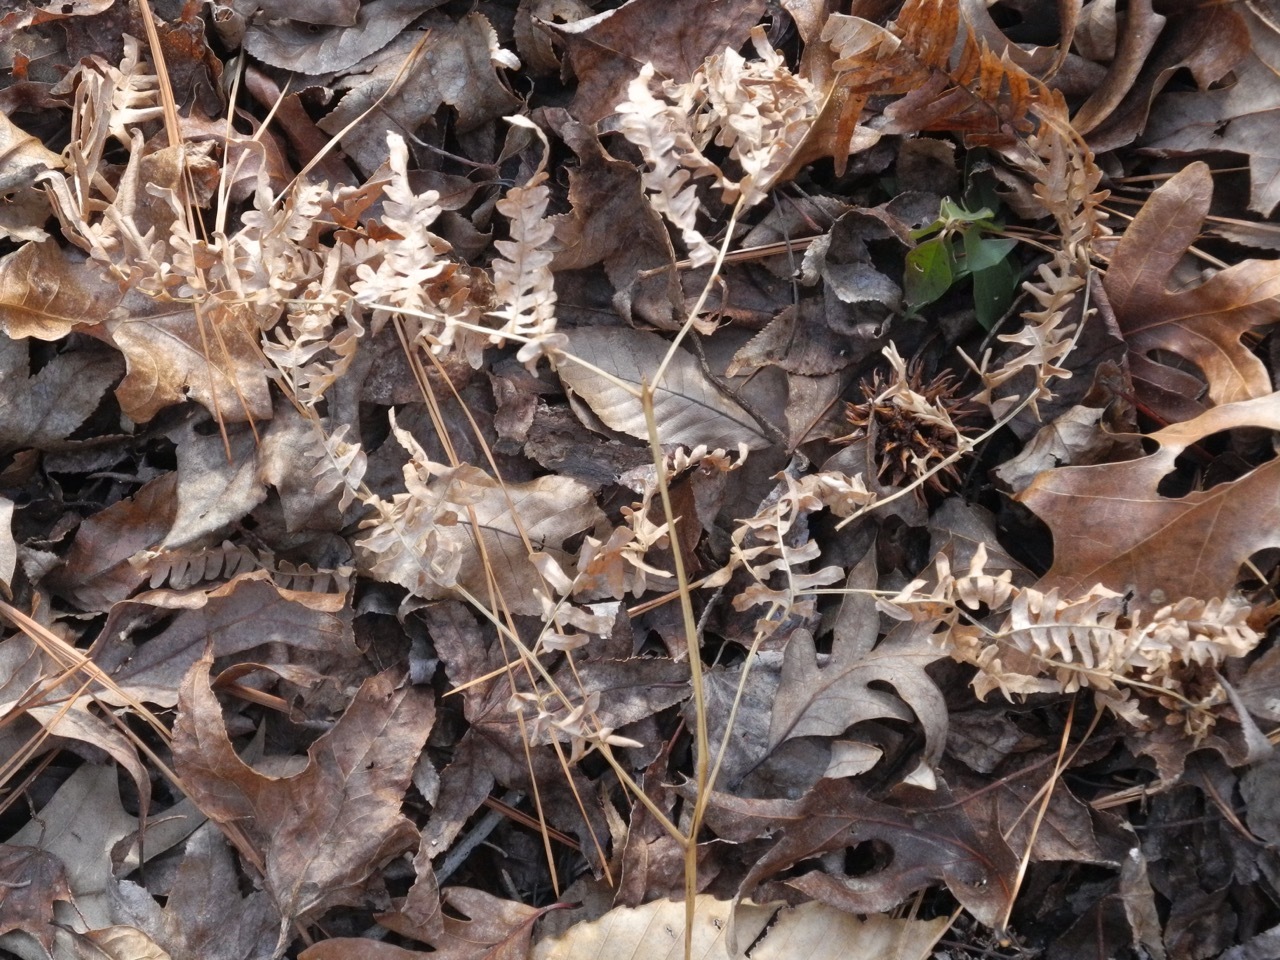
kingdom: Plantae
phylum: Tracheophyta
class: Polypodiopsida
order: Polypodiales
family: Dennstaedtiaceae
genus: Pteridium
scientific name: Pteridium
